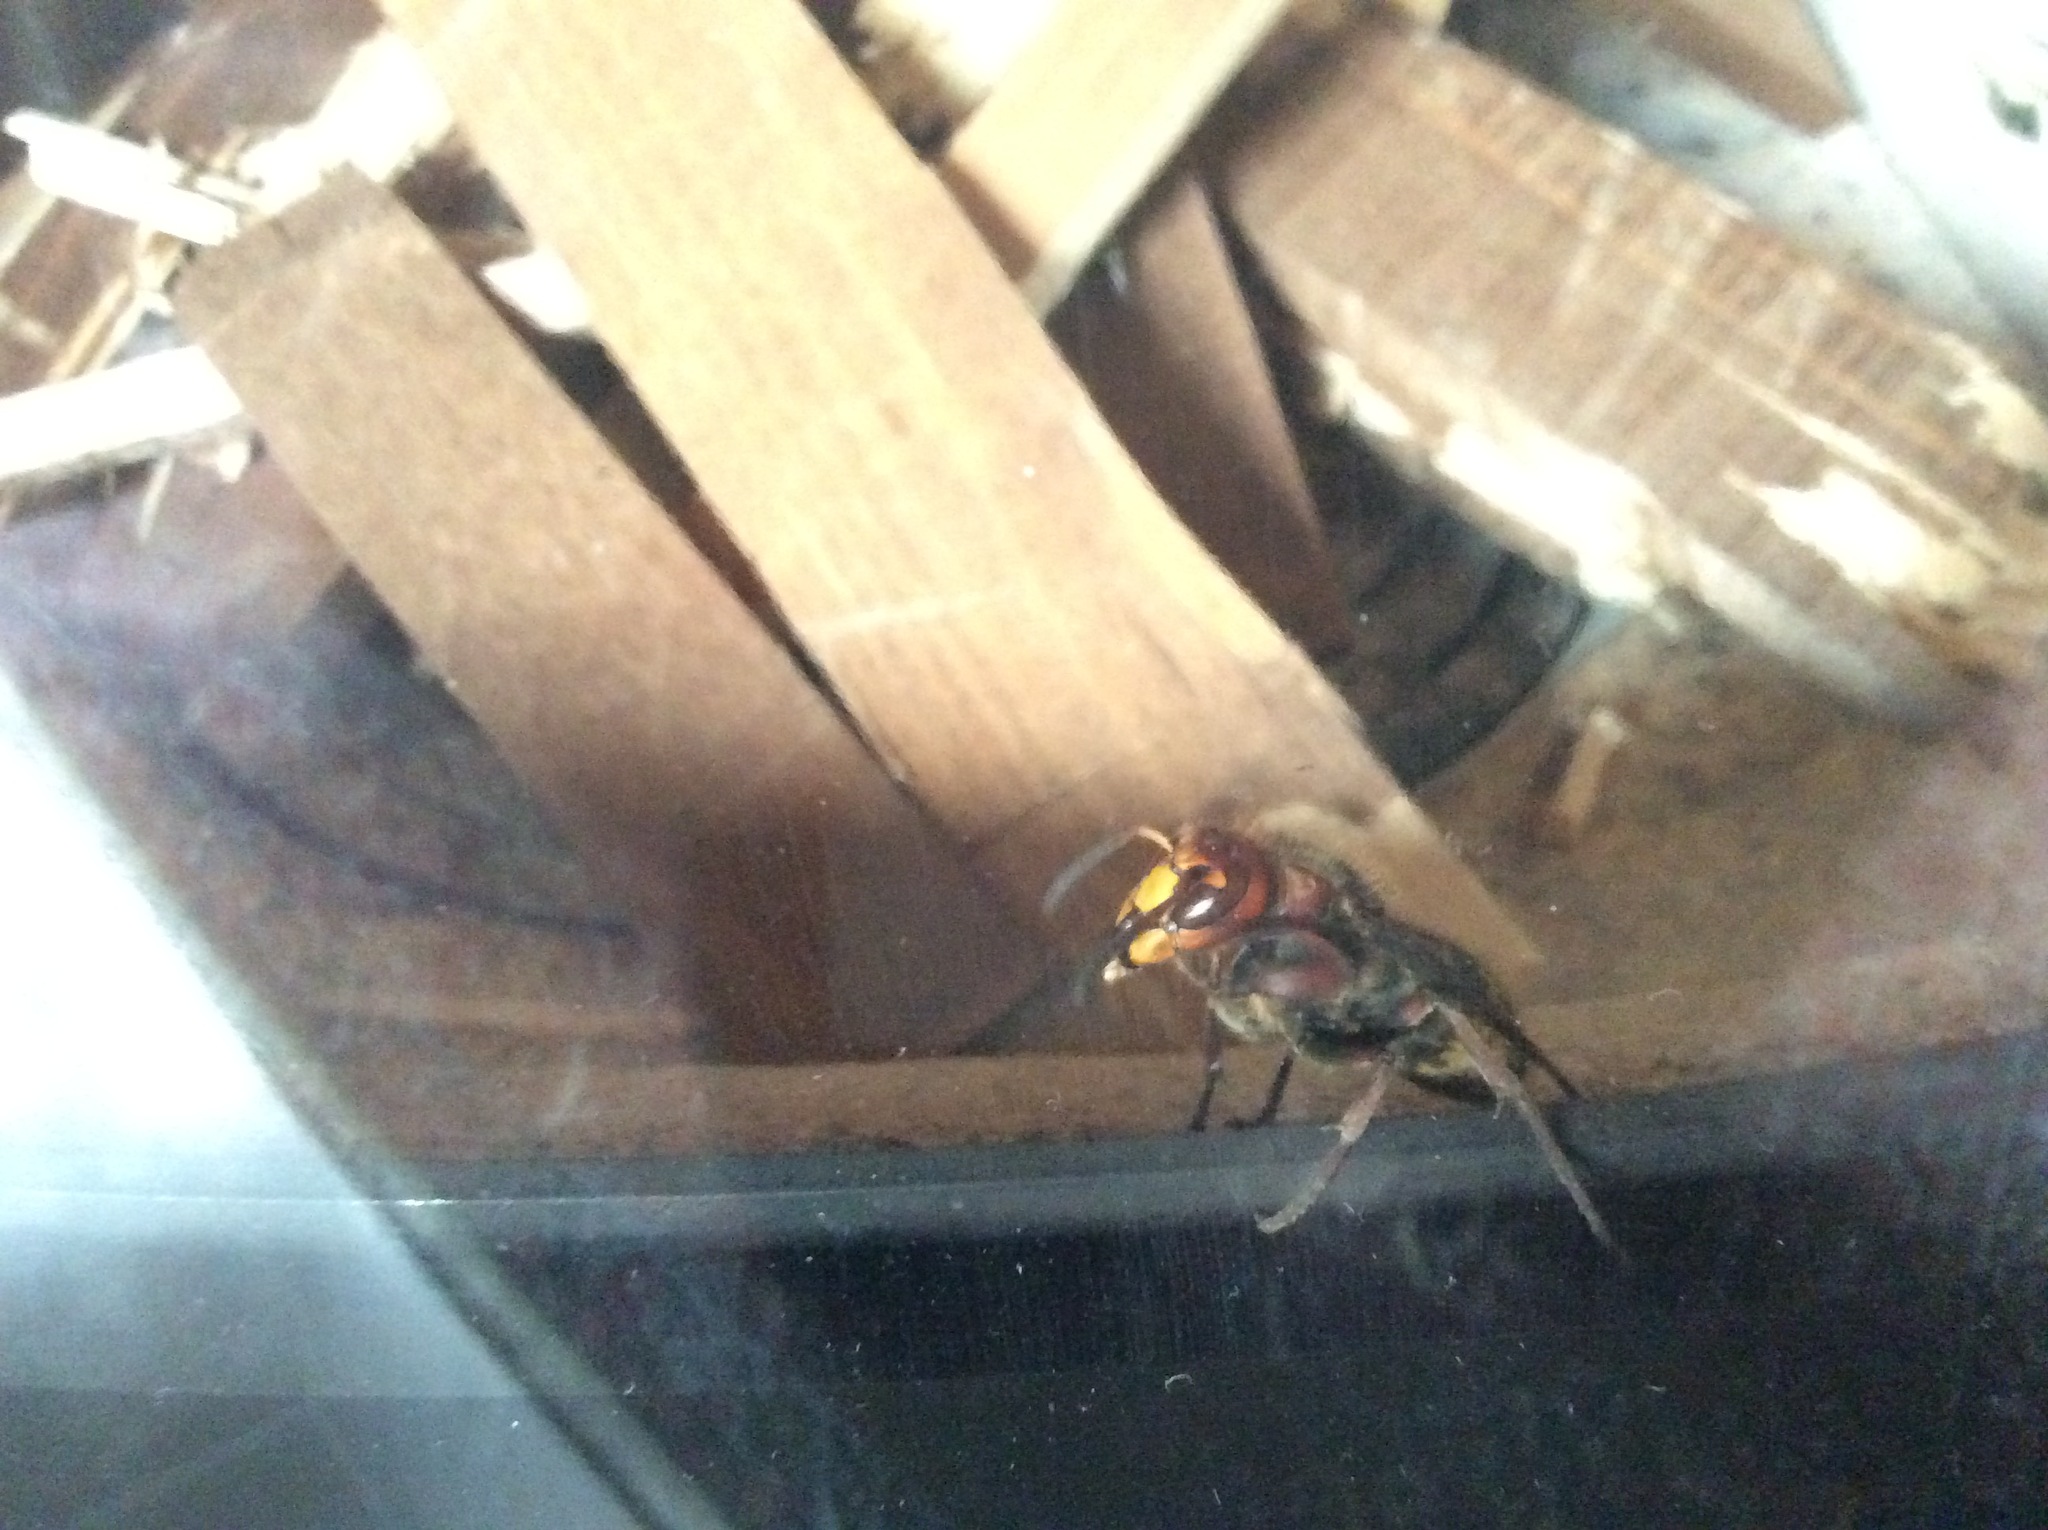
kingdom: Animalia
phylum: Arthropoda
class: Insecta
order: Hymenoptera
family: Vespidae
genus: Vespa
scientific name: Vespa crabro
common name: Hornet
